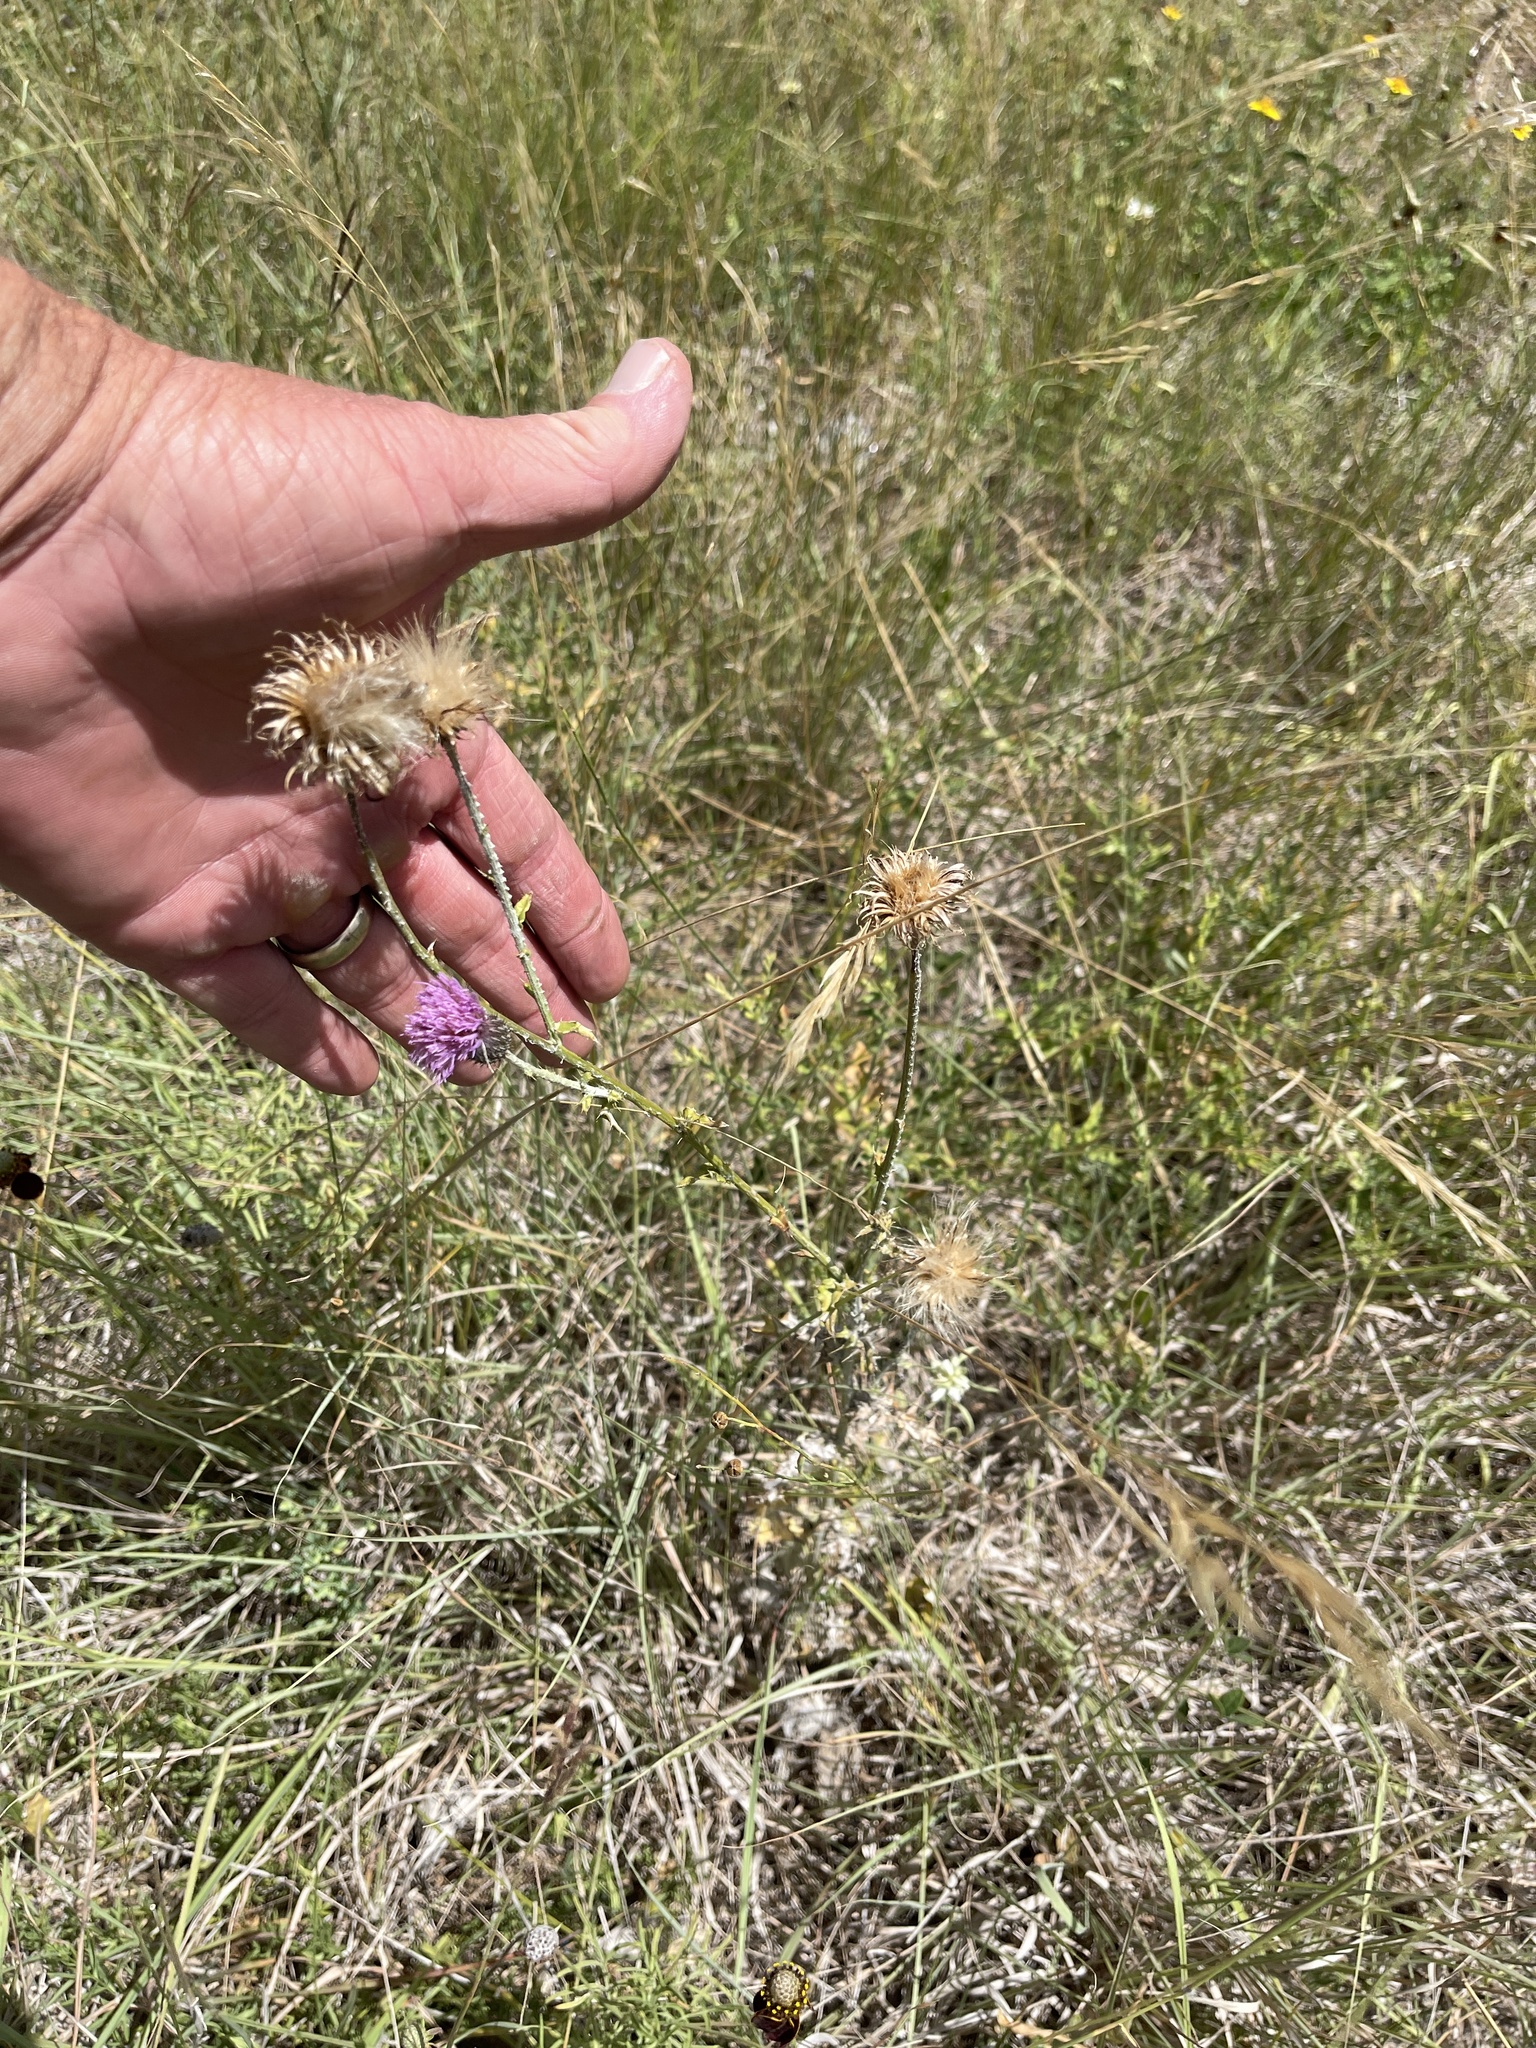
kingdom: Plantae
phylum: Tracheophyta
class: Magnoliopsida
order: Asterales
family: Asteraceae
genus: Cirsium
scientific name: Cirsium texanum
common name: Texas purple thistle
